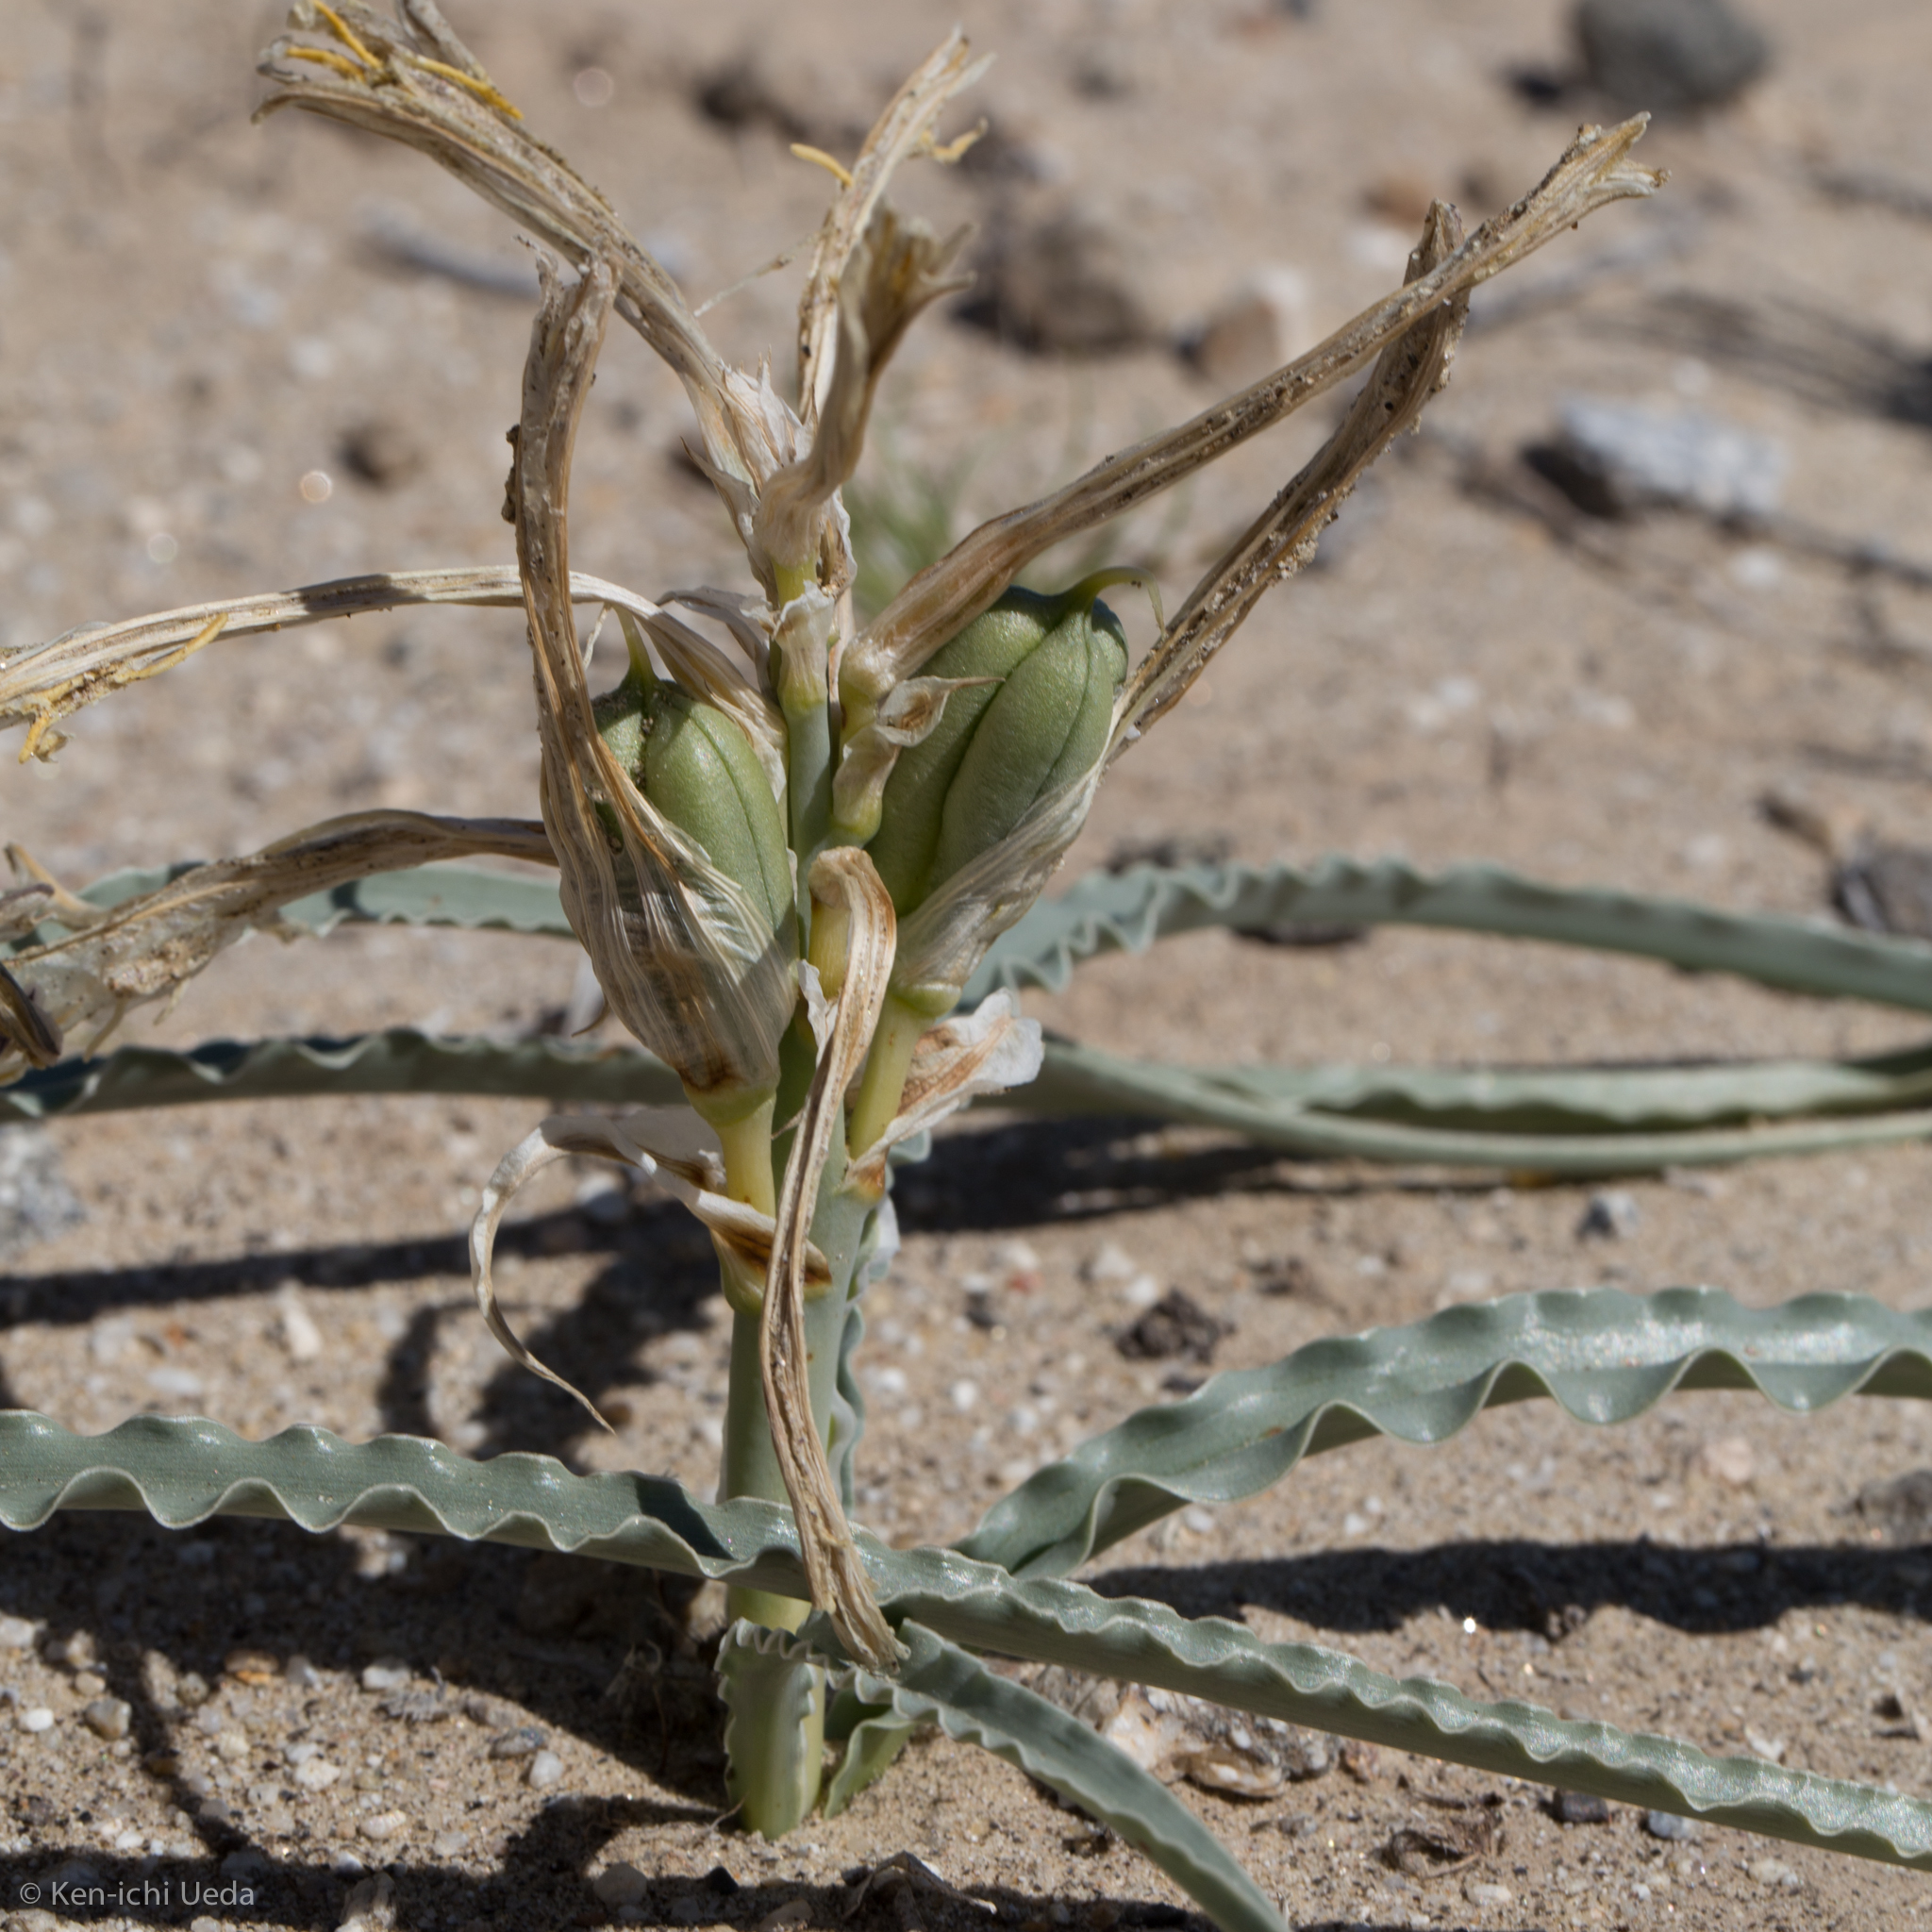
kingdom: Plantae
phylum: Tracheophyta
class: Liliopsida
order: Asparagales
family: Asparagaceae
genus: Hesperocallis
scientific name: Hesperocallis undulata
